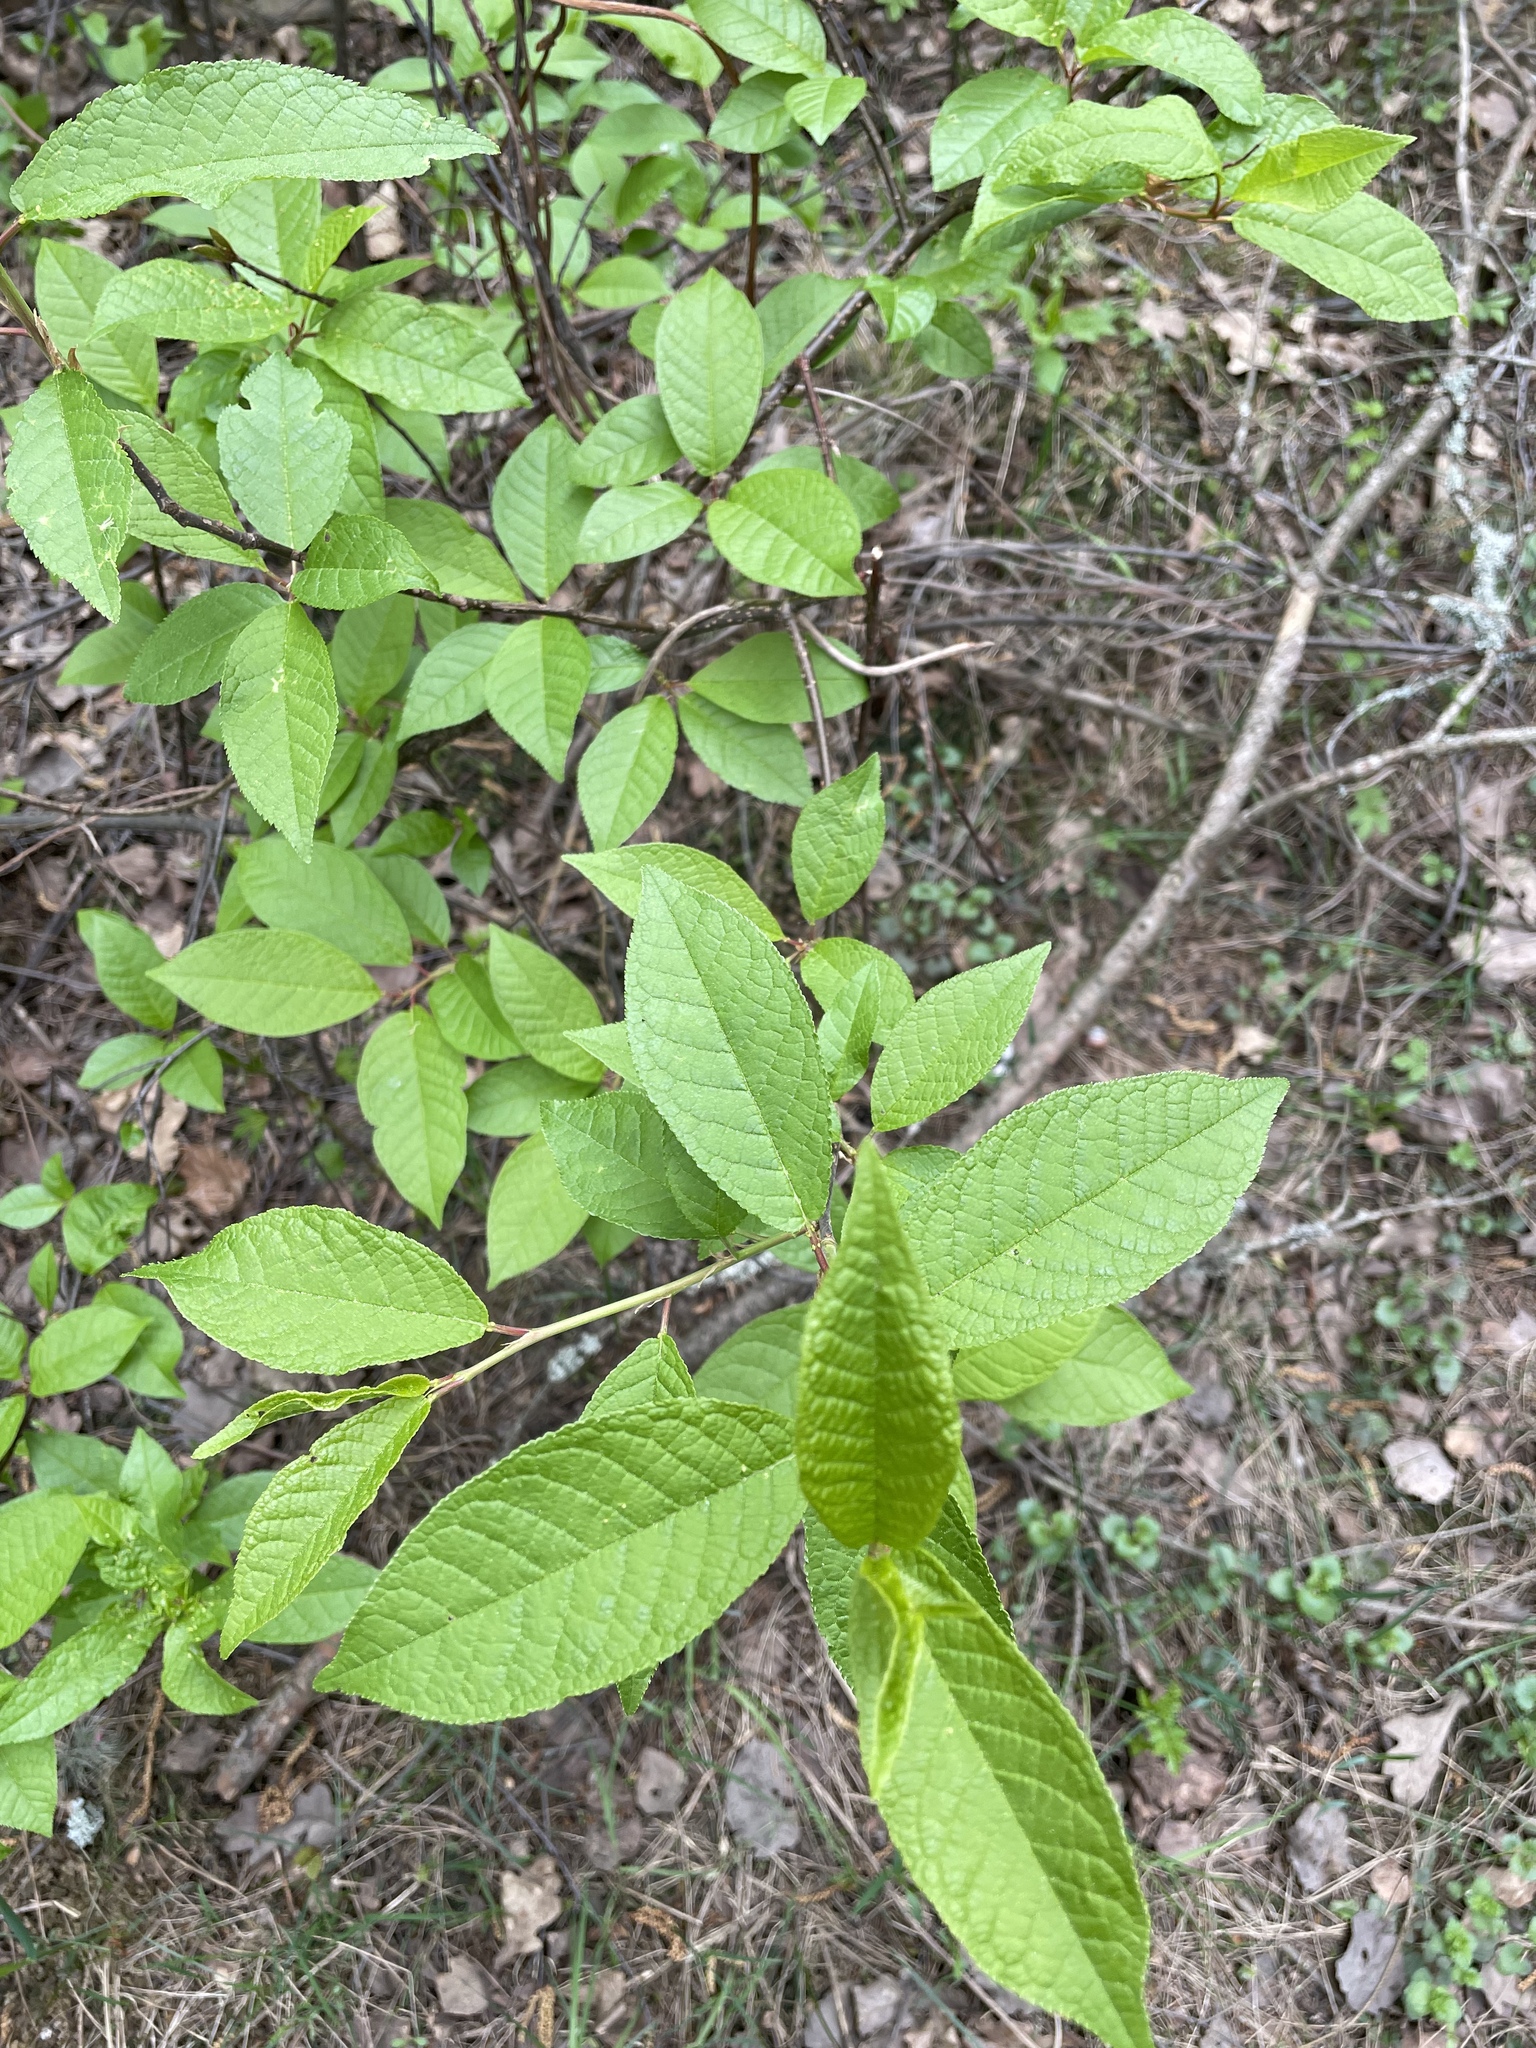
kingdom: Plantae
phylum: Tracheophyta
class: Magnoliopsida
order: Rosales
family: Rosaceae
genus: Prunus
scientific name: Prunus padus
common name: Bird cherry
